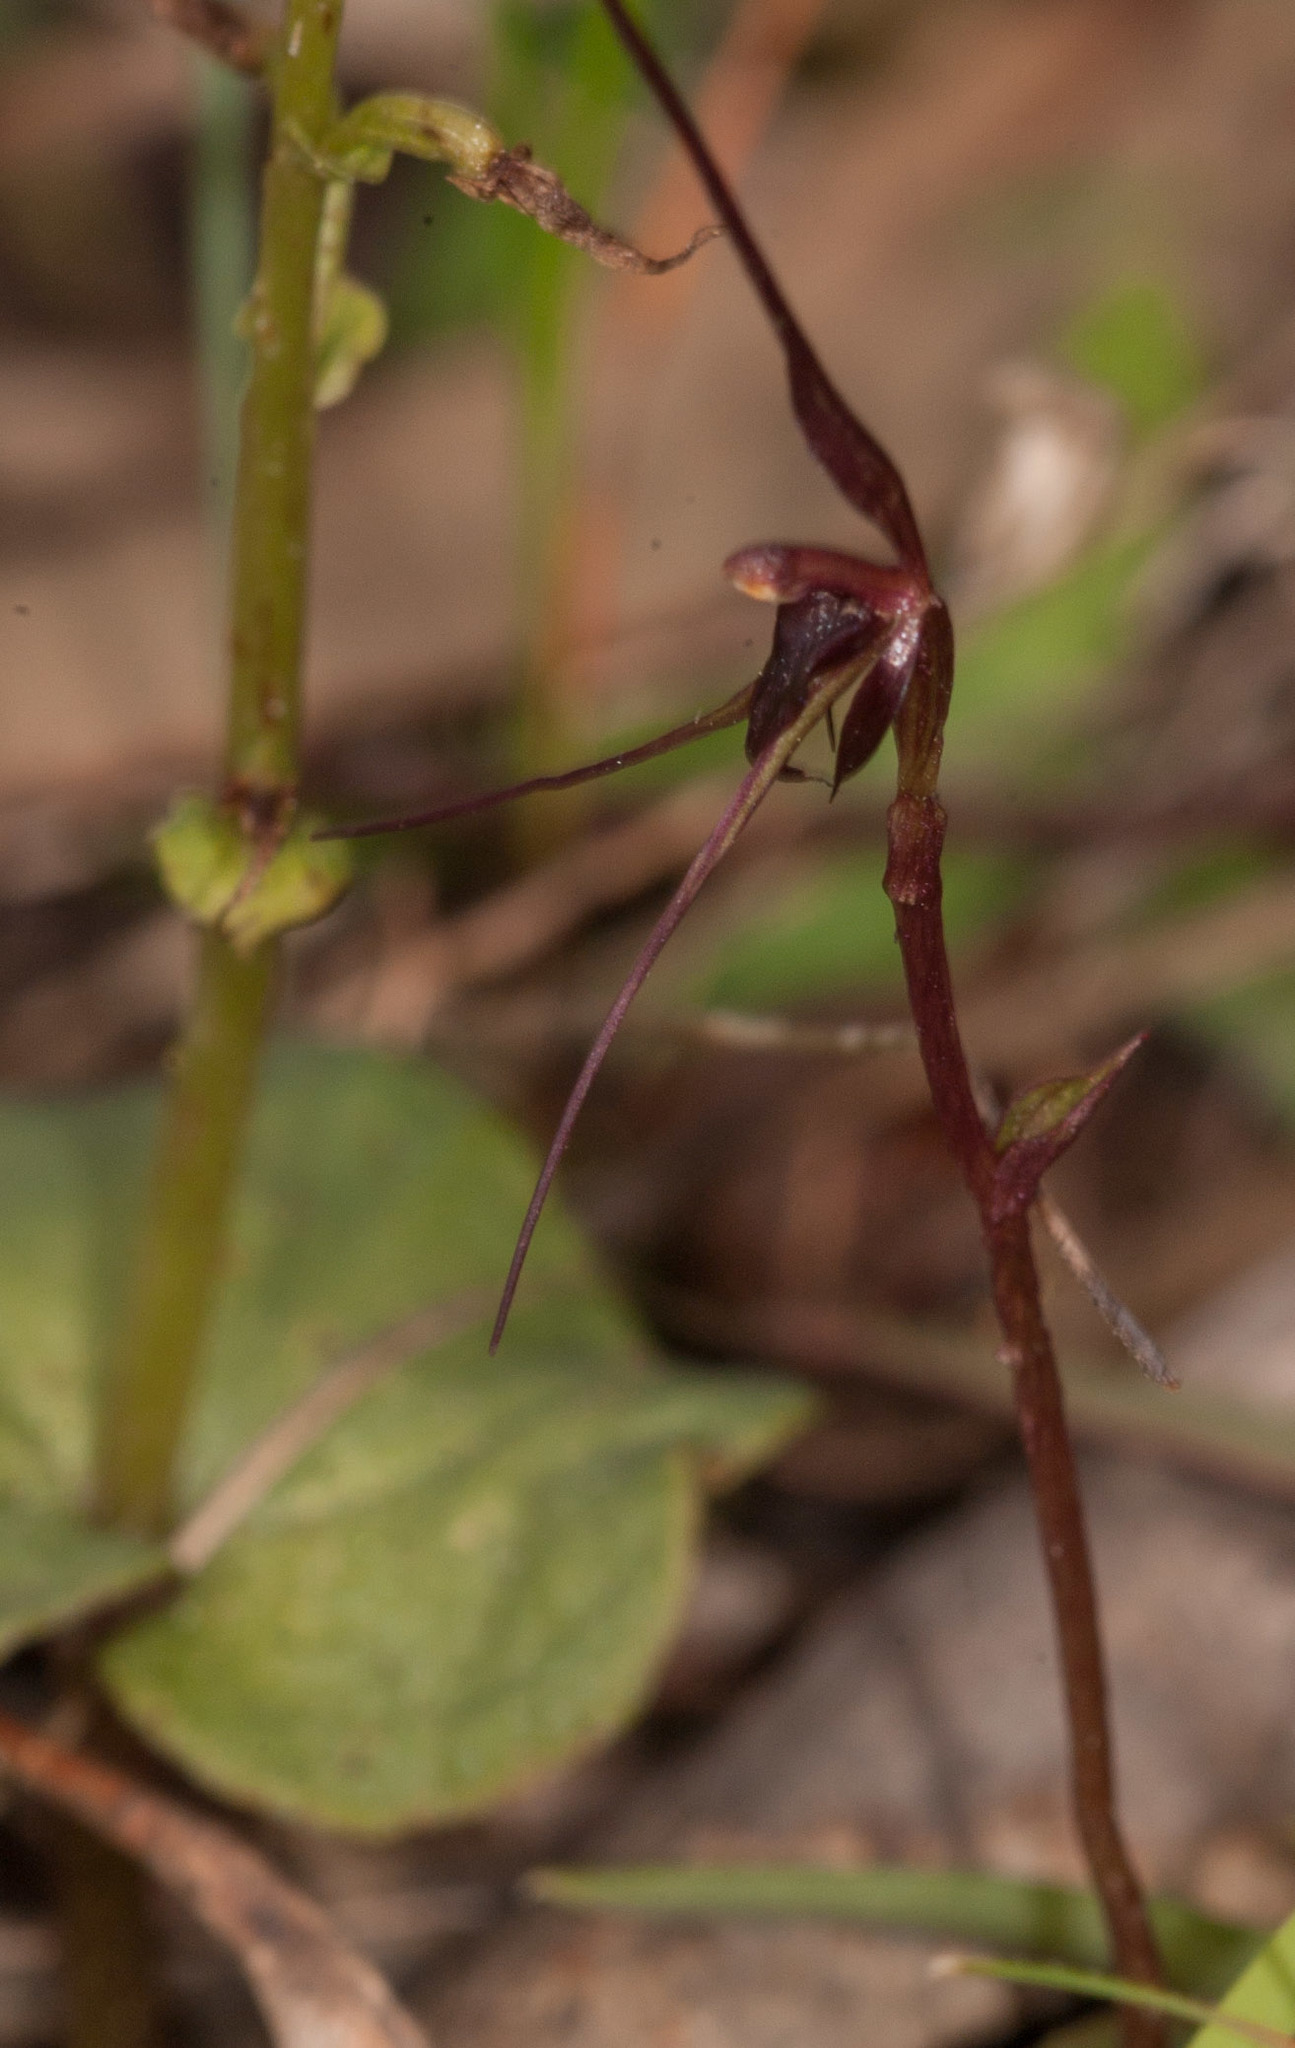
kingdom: Plantae
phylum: Tracheophyta
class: Liliopsida
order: Asparagales
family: Orchidaceae
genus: Acianthus
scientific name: Acianthus caudatus
